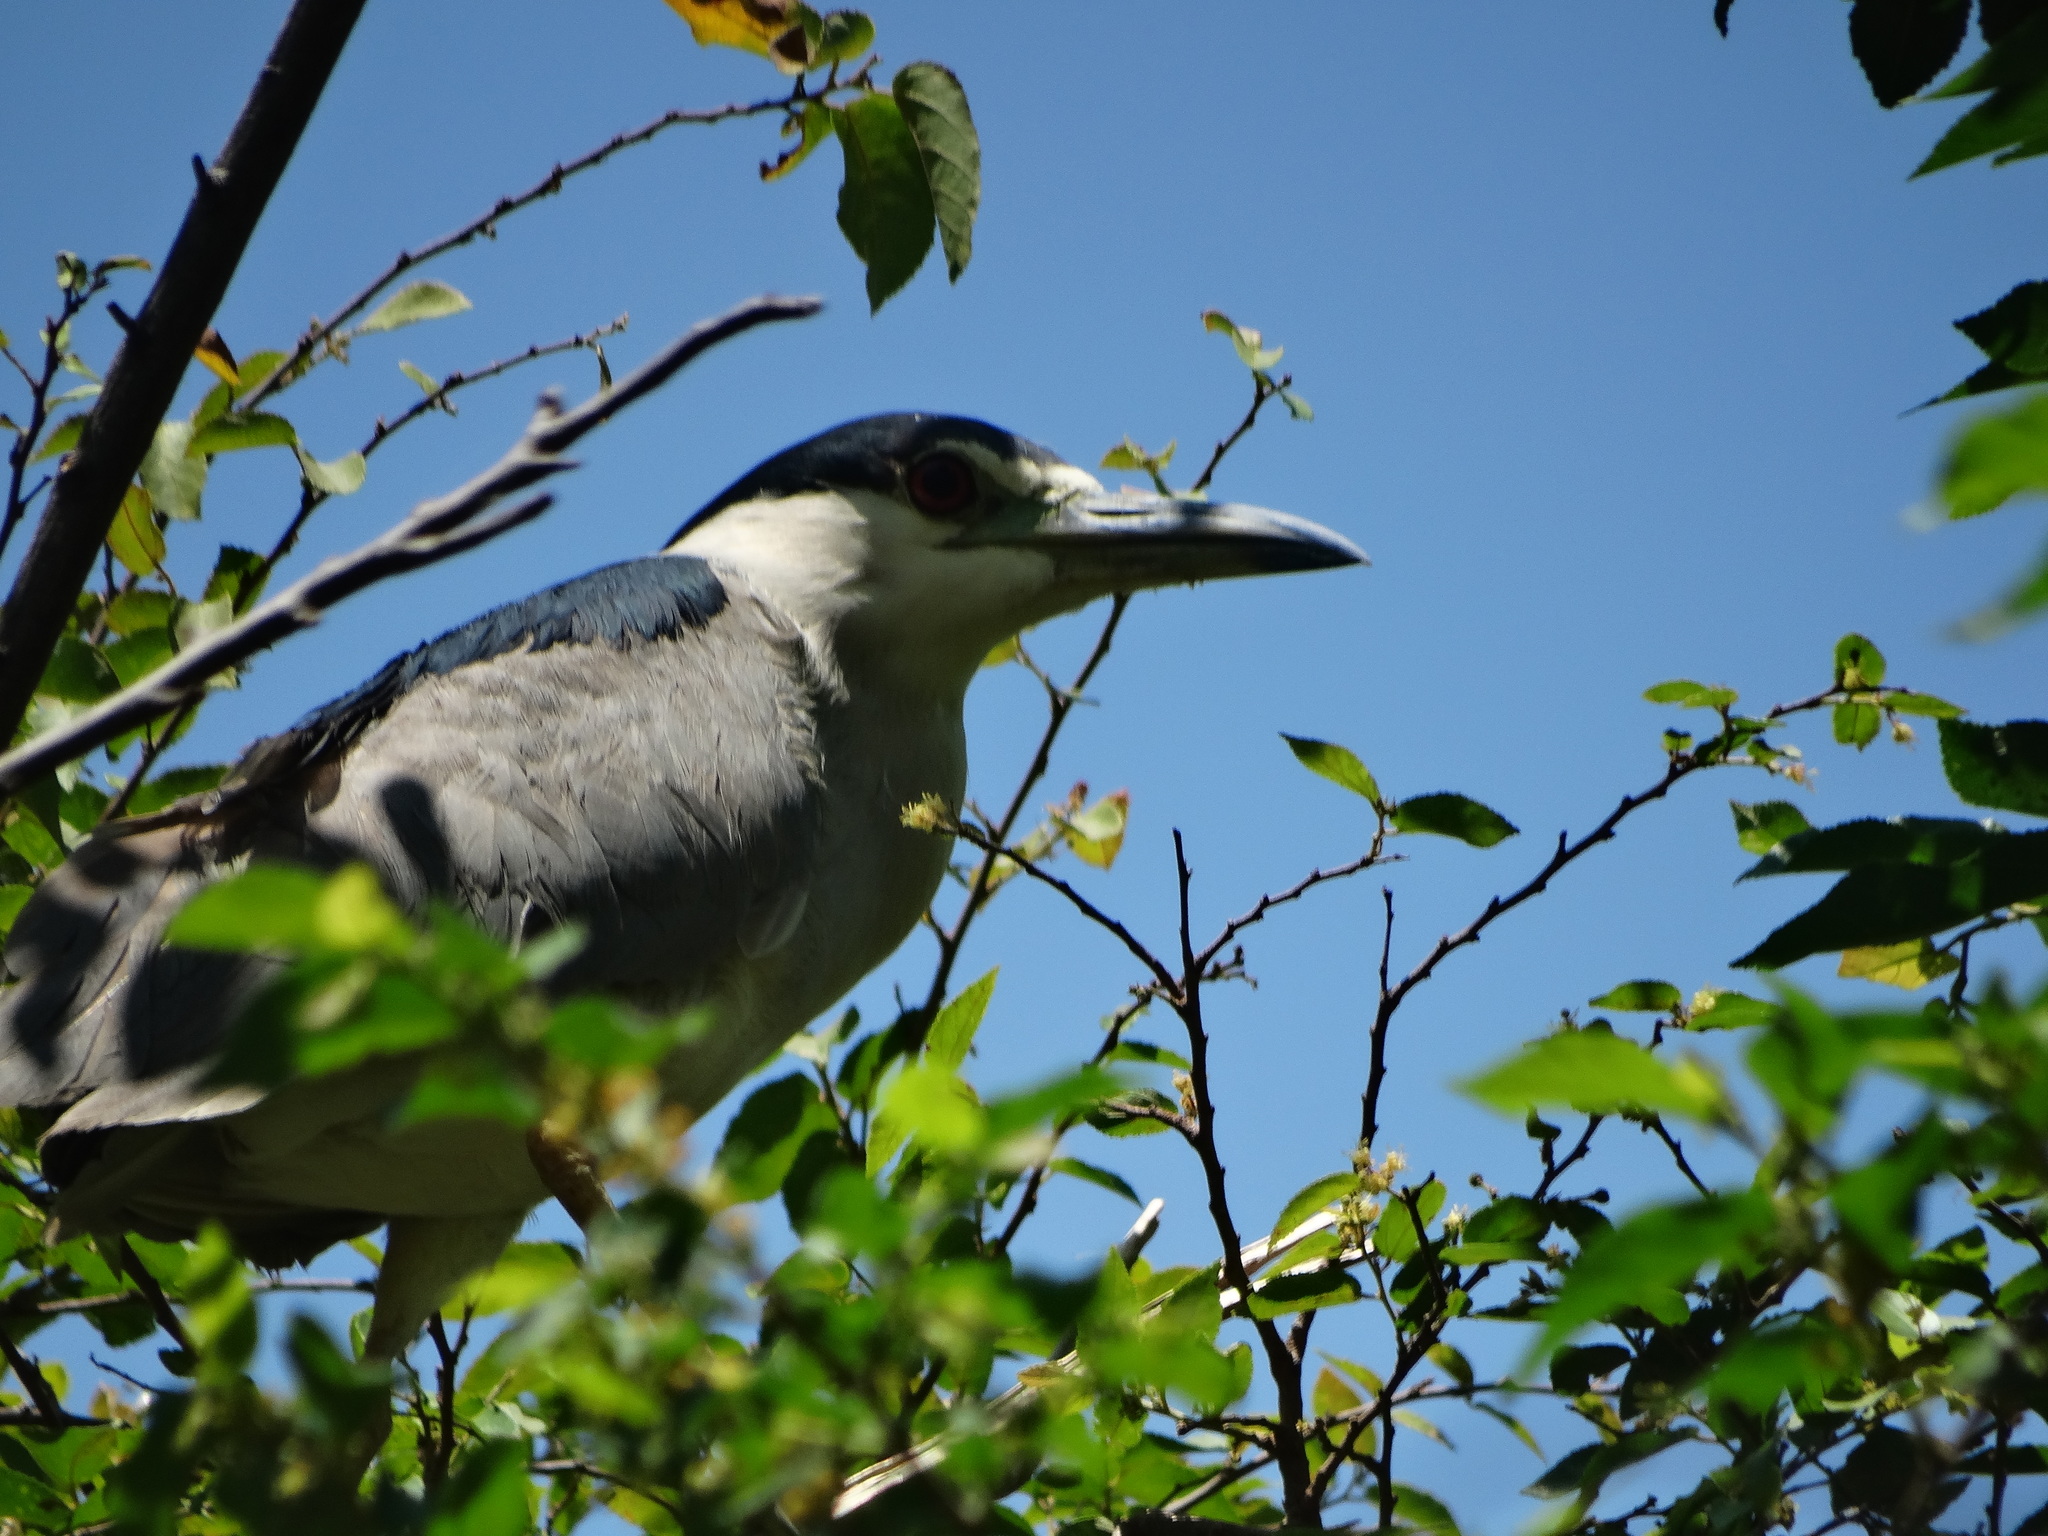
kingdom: Animalia
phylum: Chordata
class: Aves
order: Pelecaniformes
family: Ardeidae
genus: Nycticorax
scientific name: Nycticorax nycticorax
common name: Black-crowned night heron
